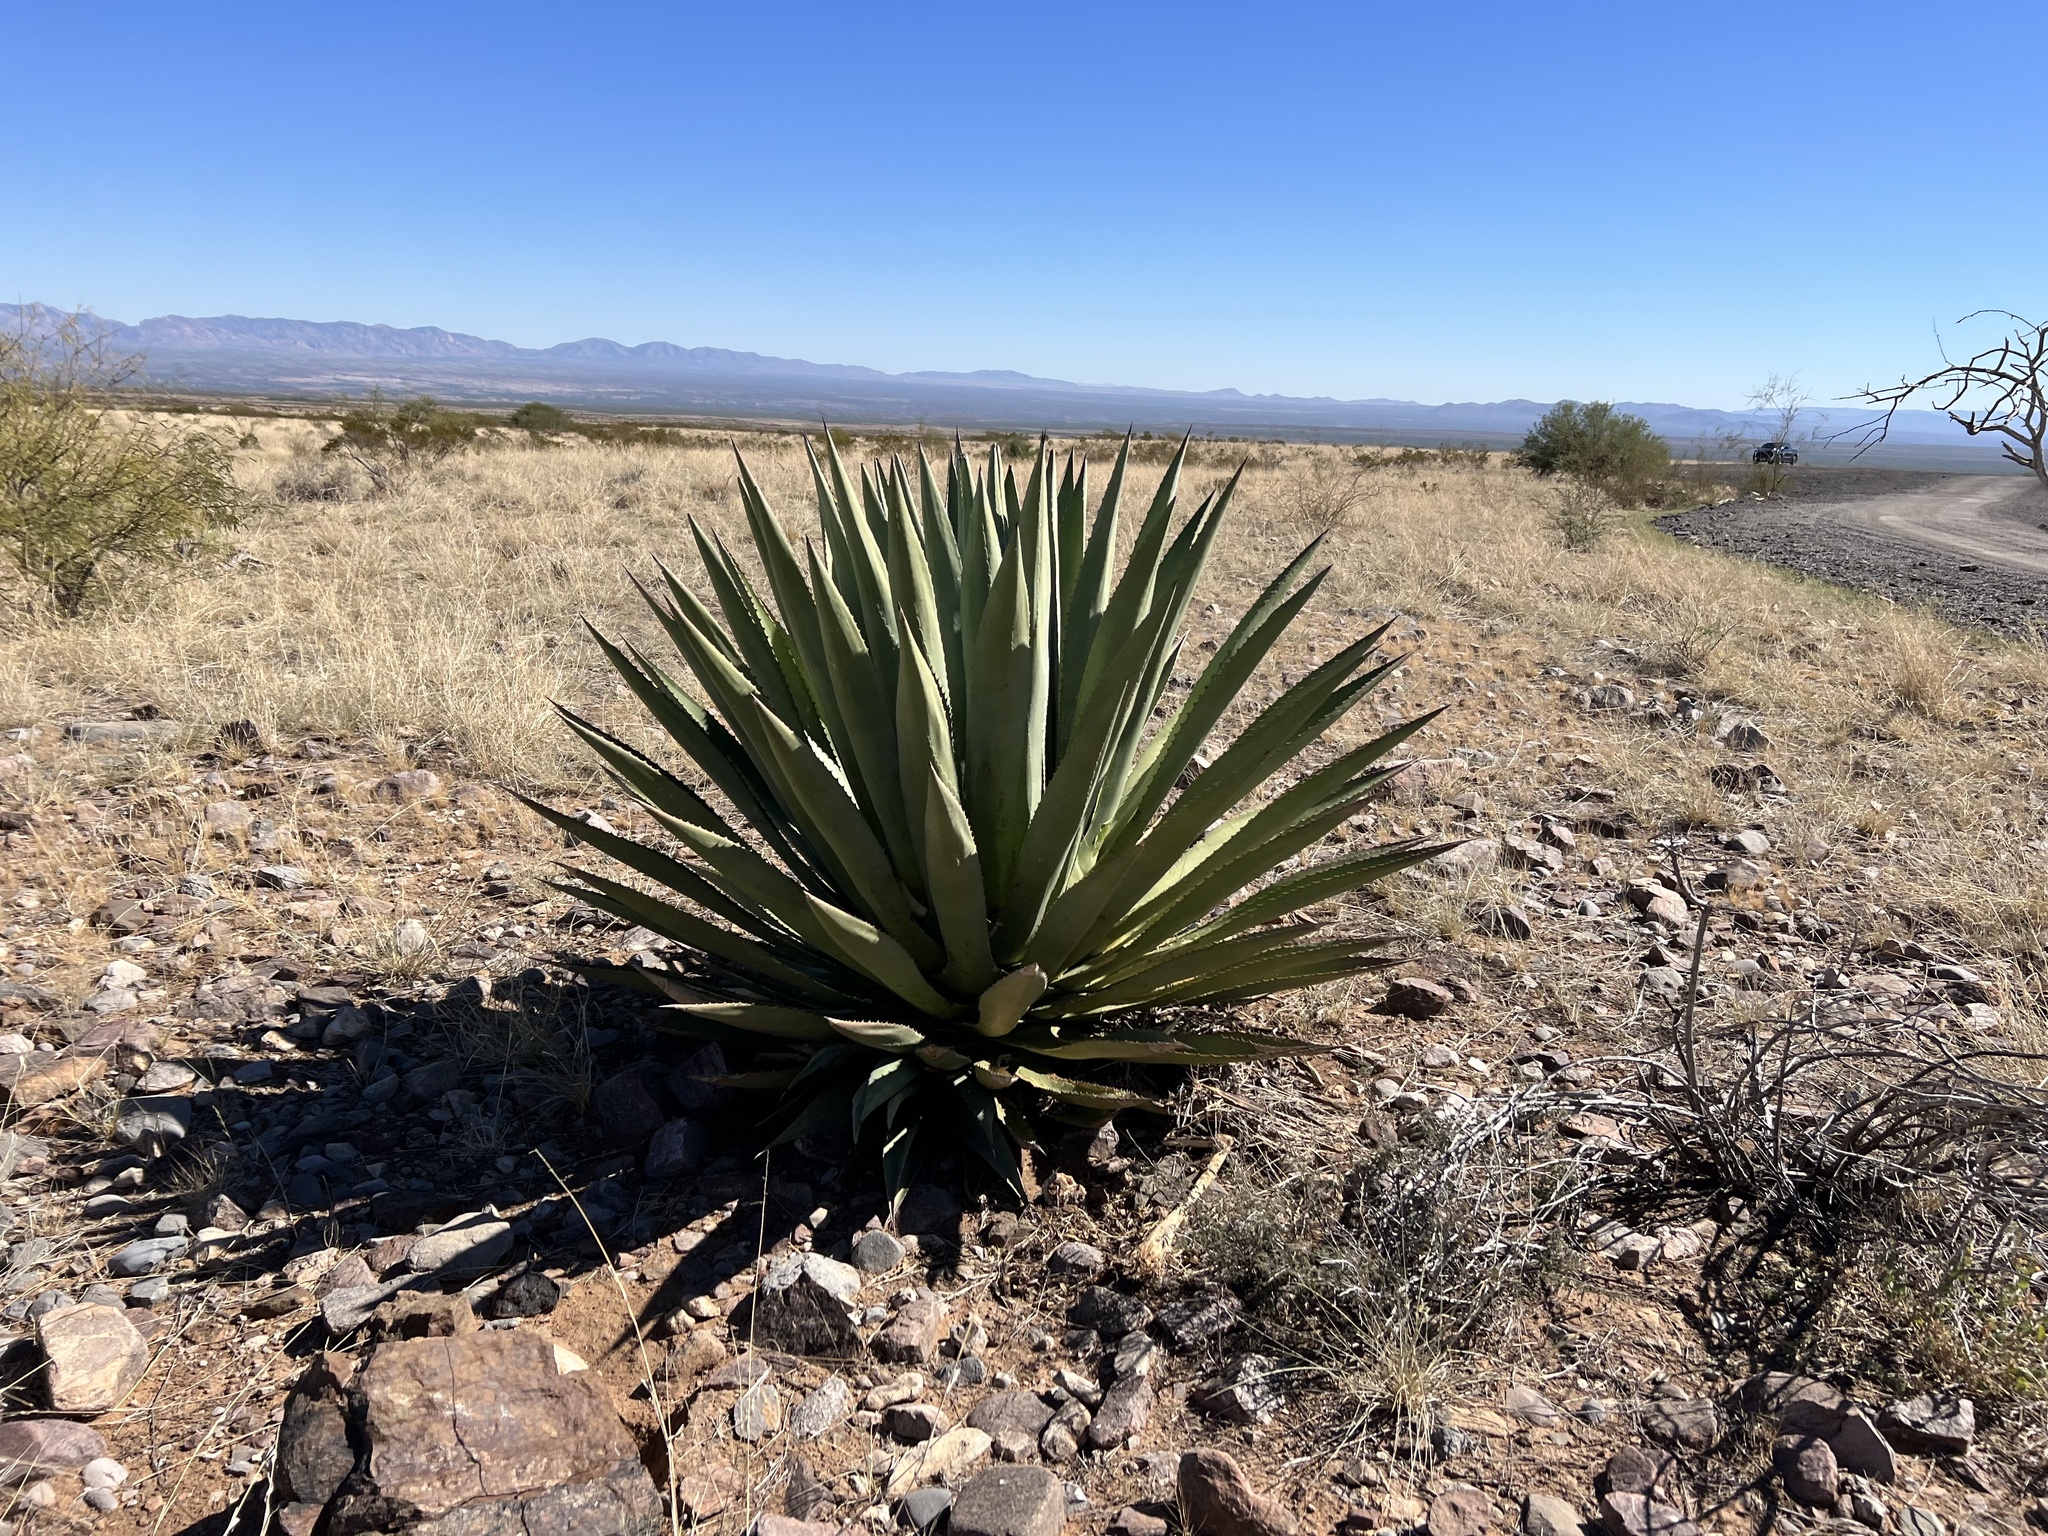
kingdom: Plantae
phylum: Tracheophyta
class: Liliopsida
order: Asparagales
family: Asparagaceae
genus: Agave
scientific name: Agave palmeri
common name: Palmer agave
